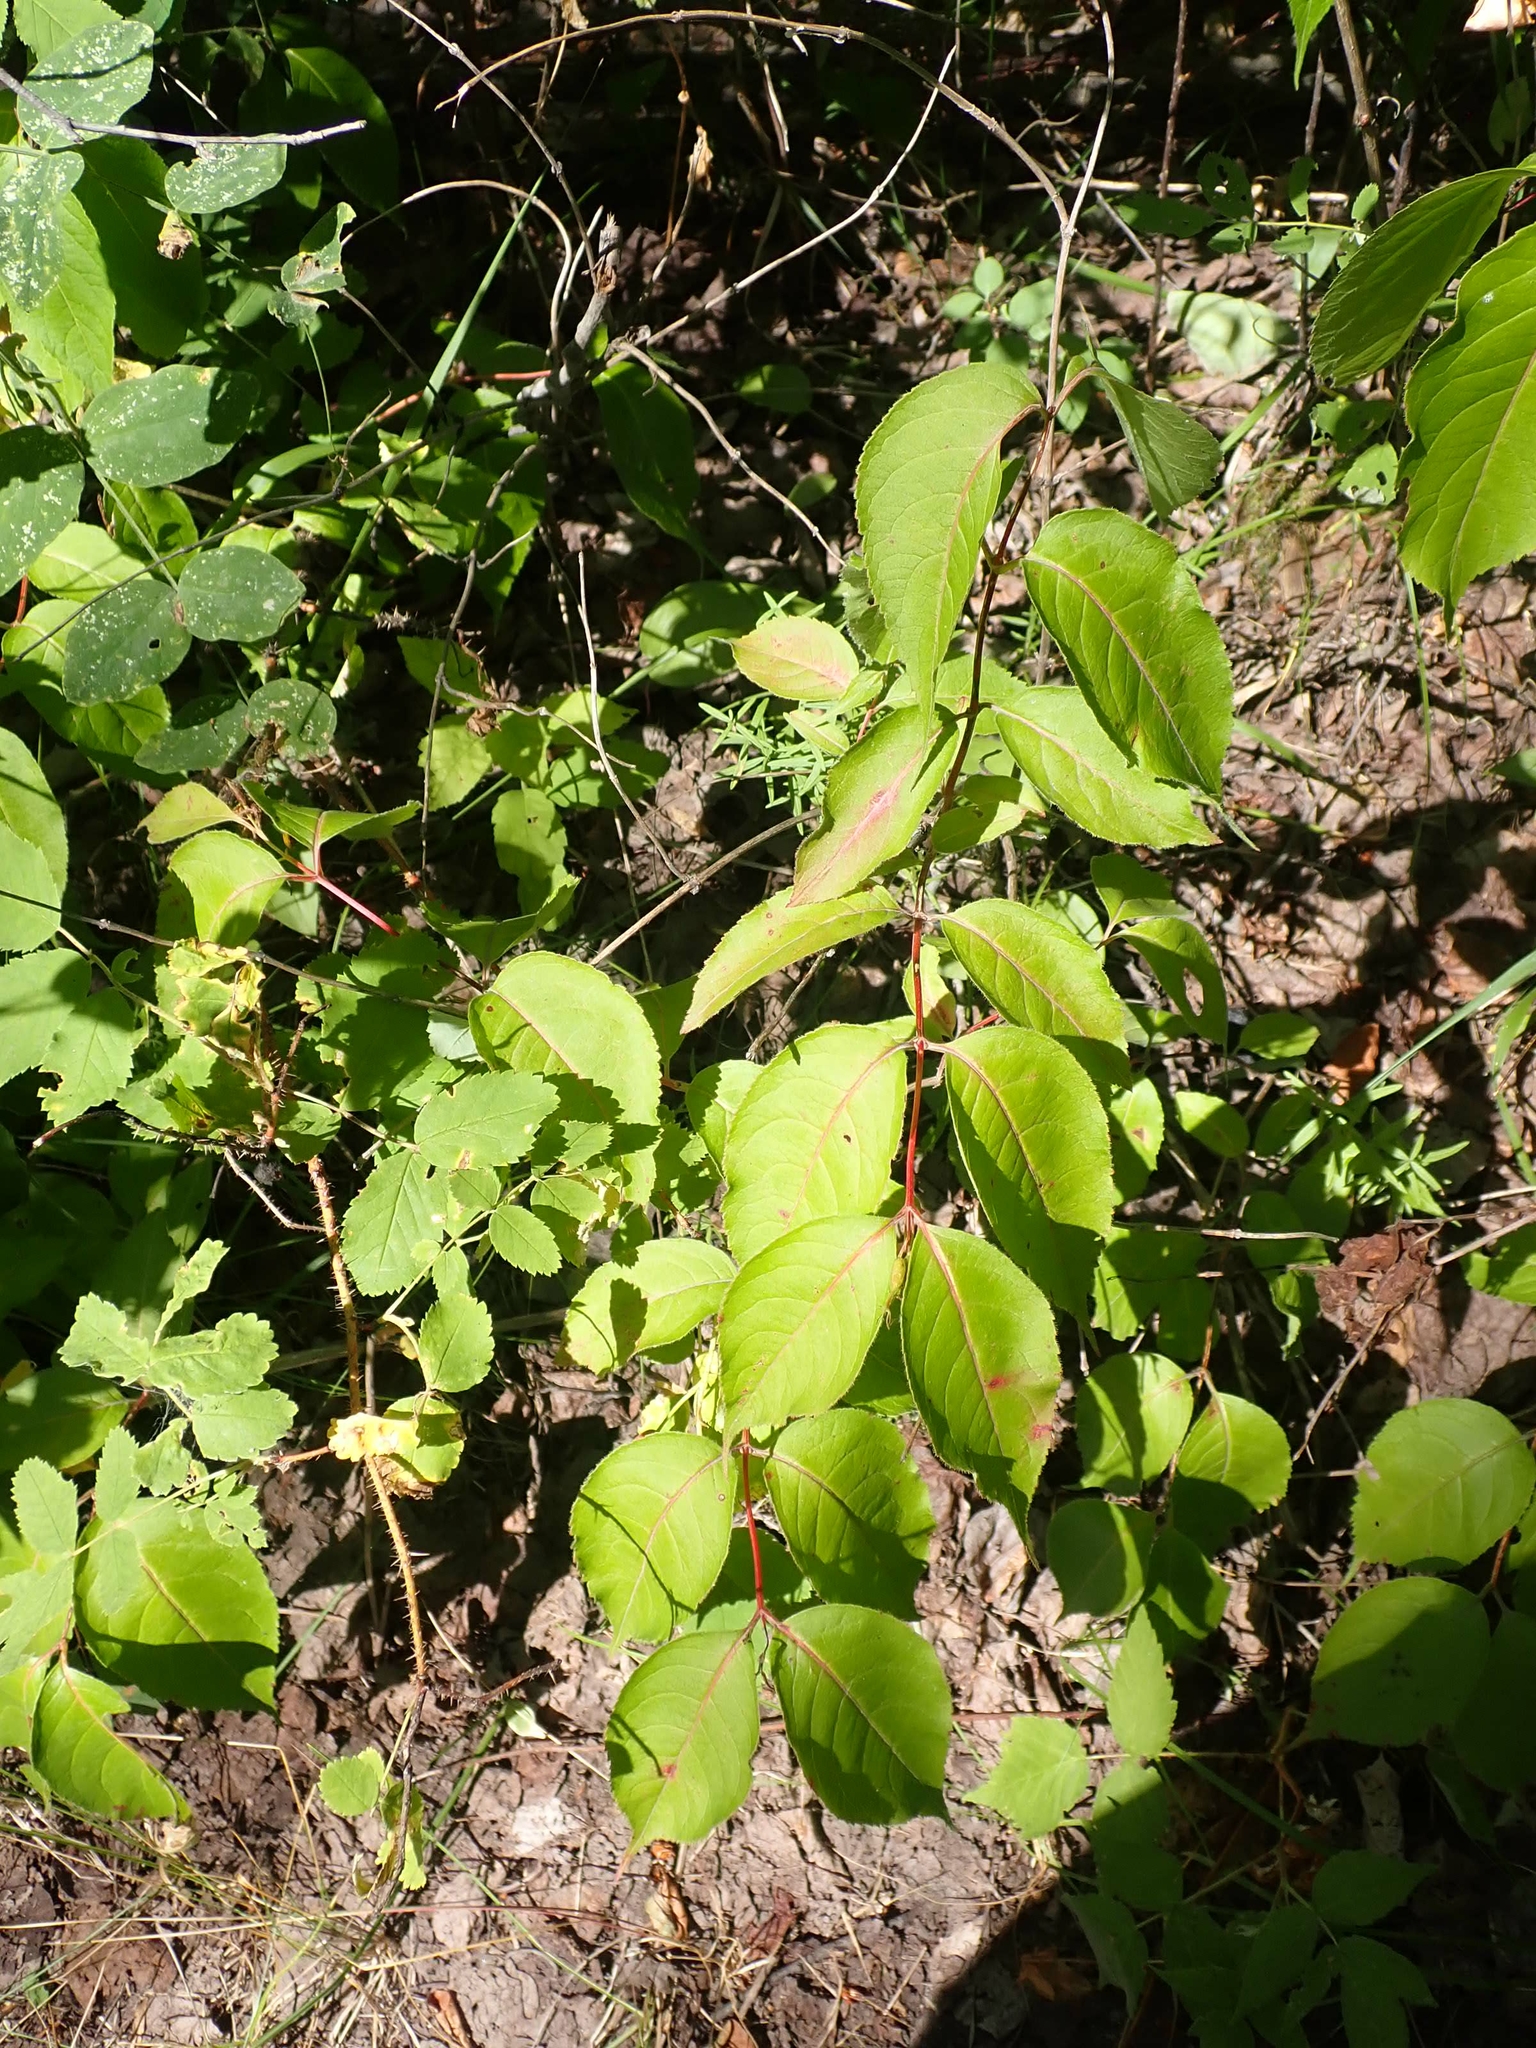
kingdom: Plantae
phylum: Tracheophyta
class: Magnoliopsida
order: Dipsacales
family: Caprifoliaceae
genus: Diervilla
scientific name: Diervilla lonicera
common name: Bush-honeysuckle
